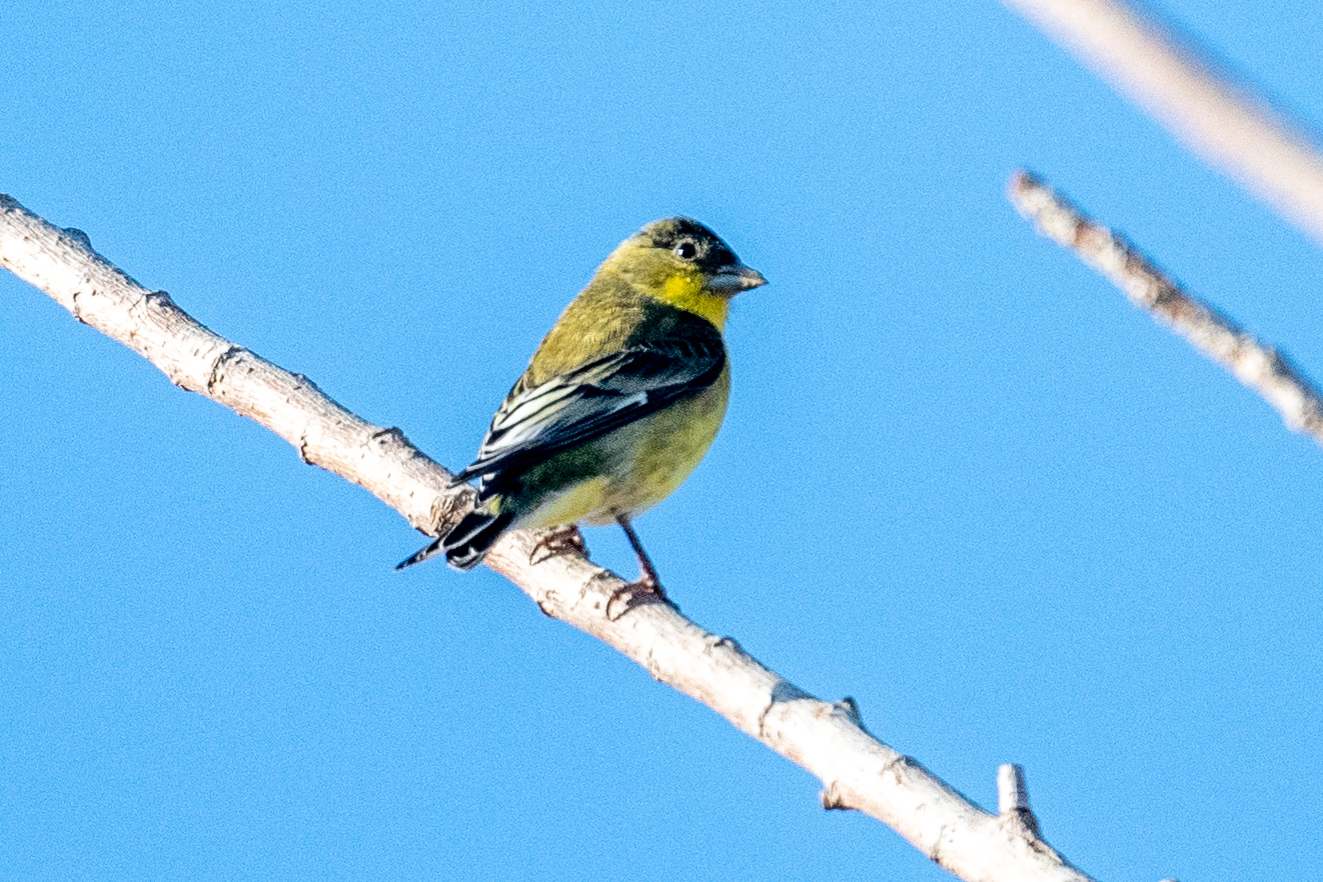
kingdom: Animalia
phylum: Chordata
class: Aves
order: Passeriformes
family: Fringillidae
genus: Spinus
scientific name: Spinus psaltria
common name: Lesser goldfinch
